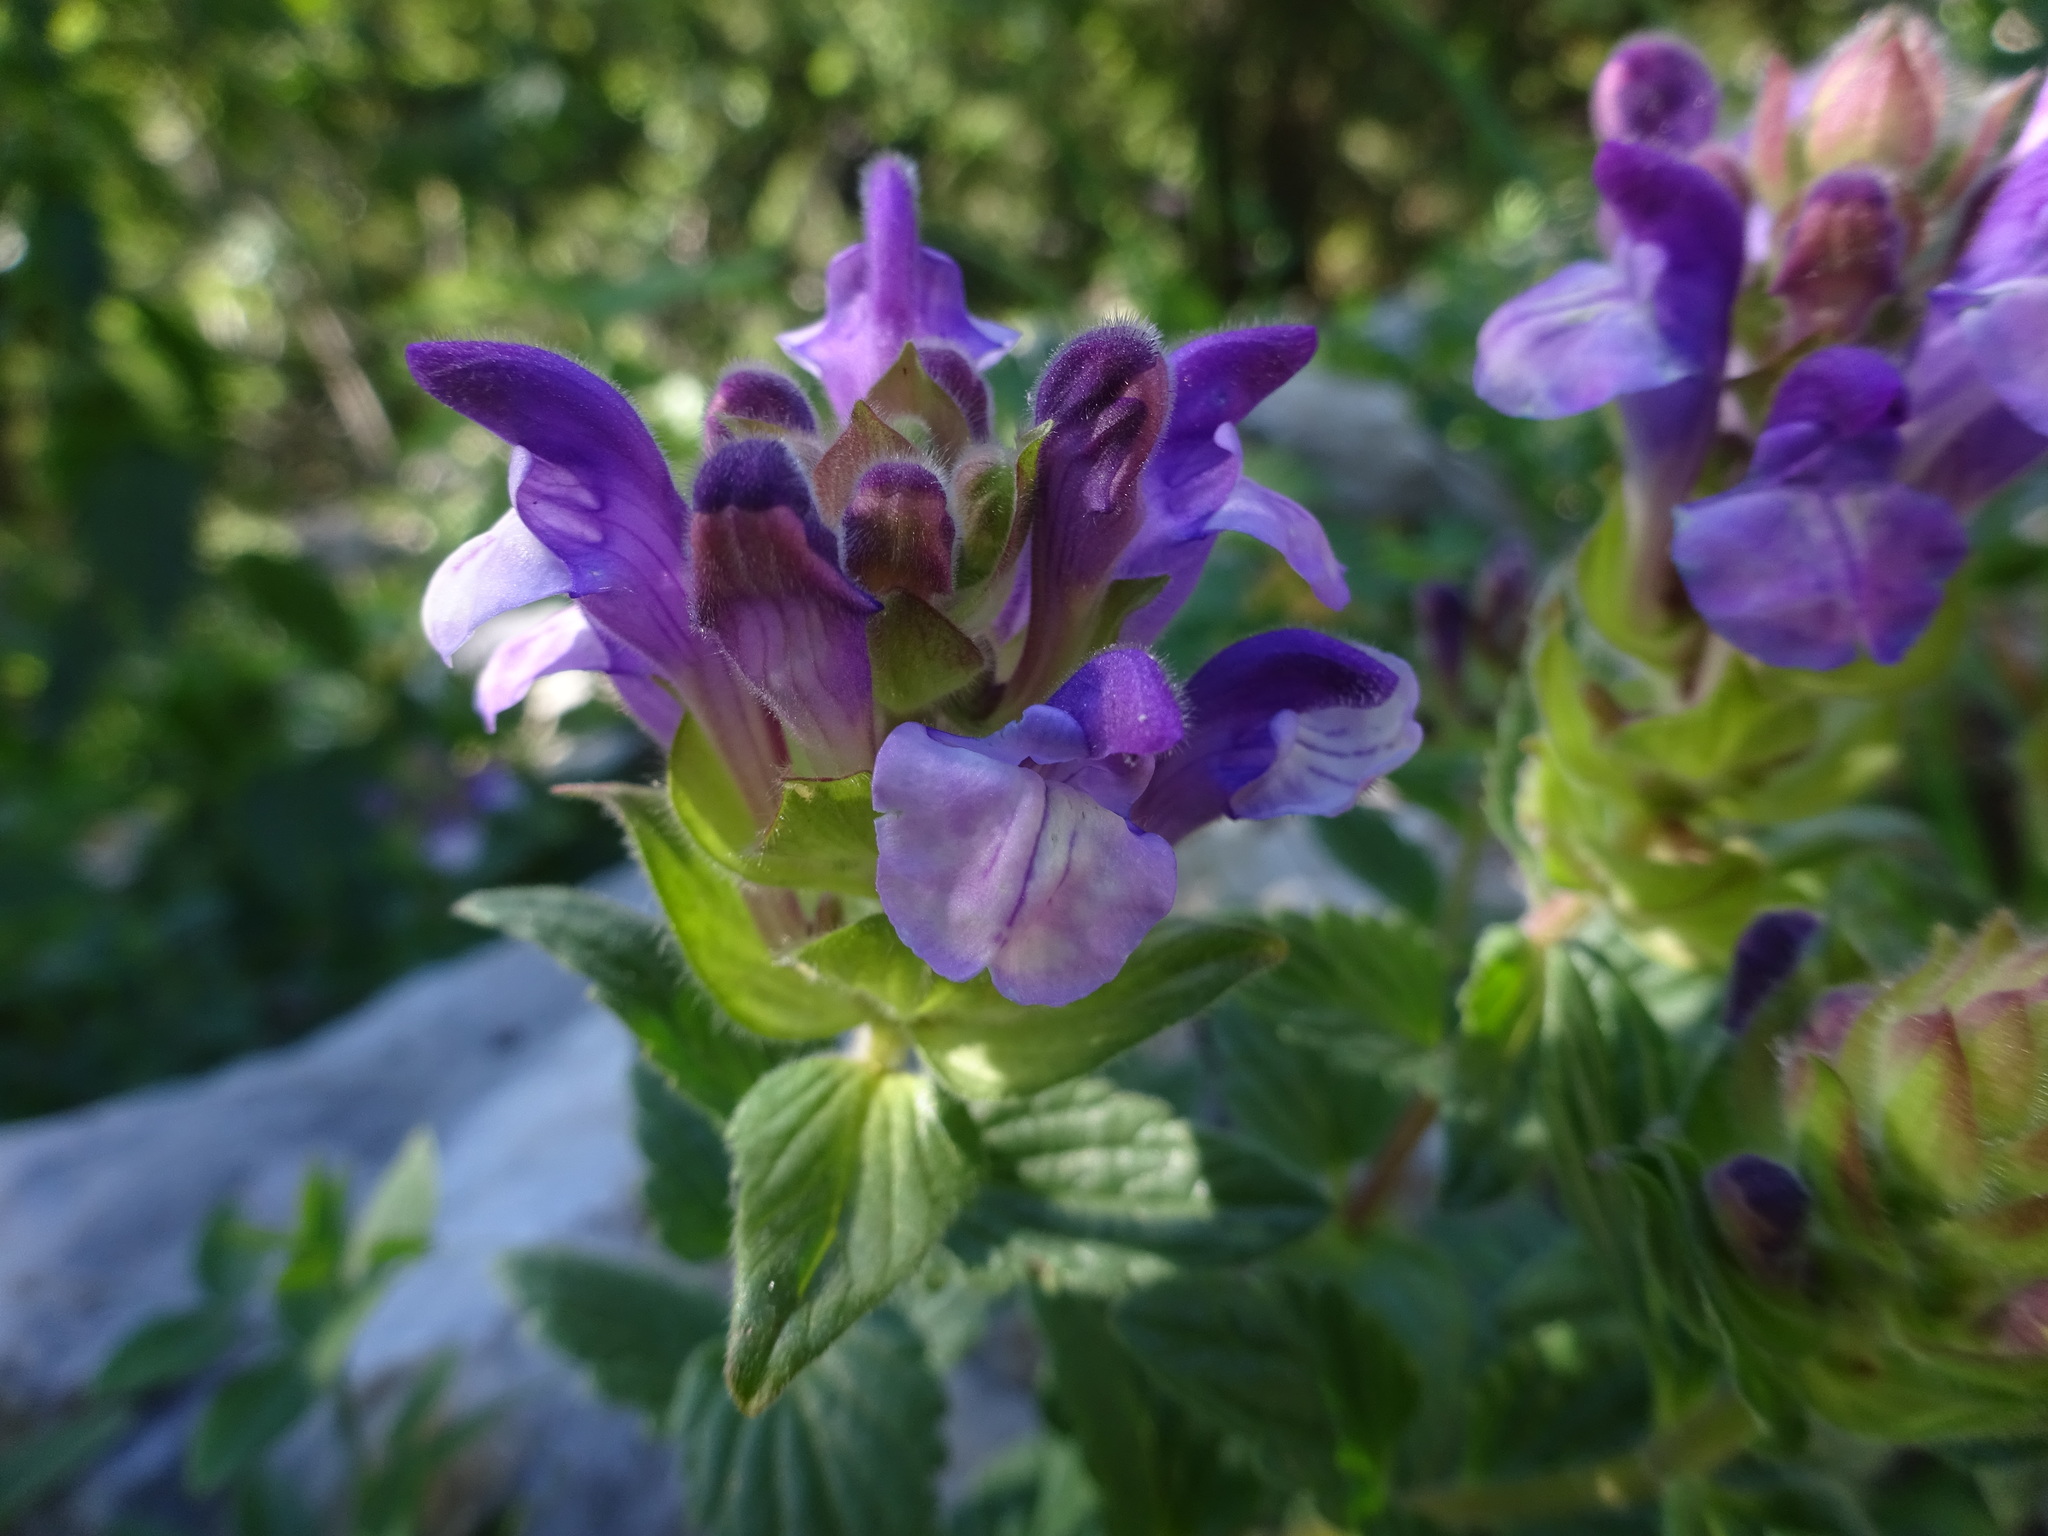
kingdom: Plantae
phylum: Tracheophyta
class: Magnoliopsida
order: Lamiales
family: Lamiaceae
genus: Scutellaria
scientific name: Scutellaria alpina
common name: Alpine scullcap
